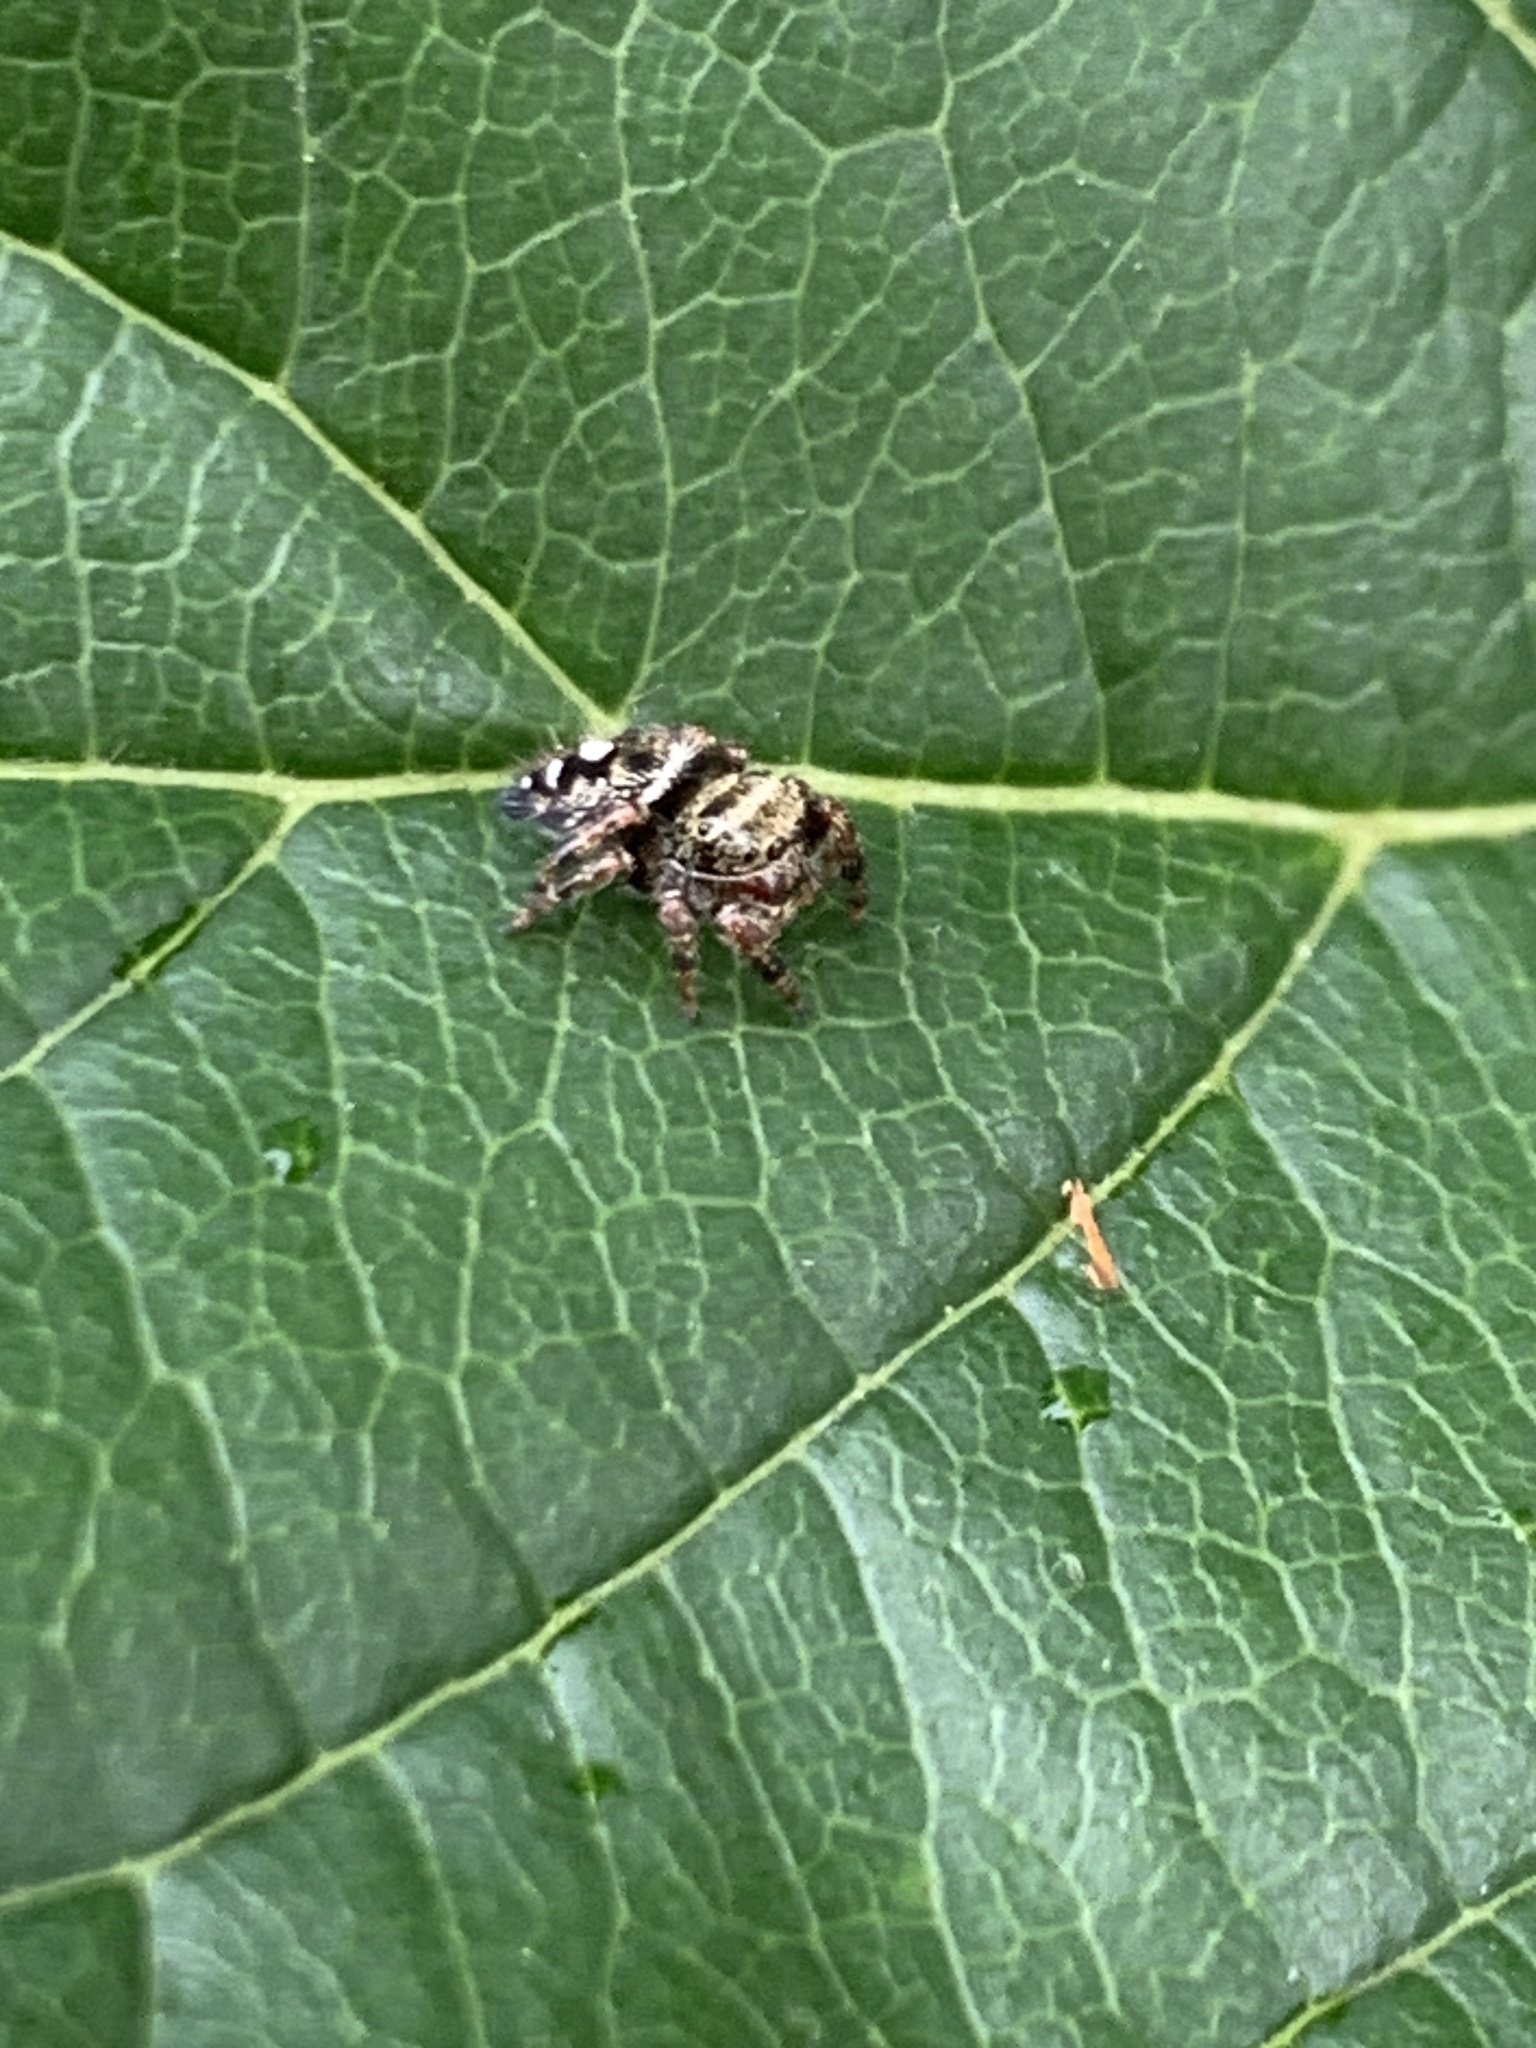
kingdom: Animalia
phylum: Arthropoda
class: Arachnida
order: Araneae
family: Salticidae
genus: Phidippus
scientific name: Phidippus audax
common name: Bold jumper
